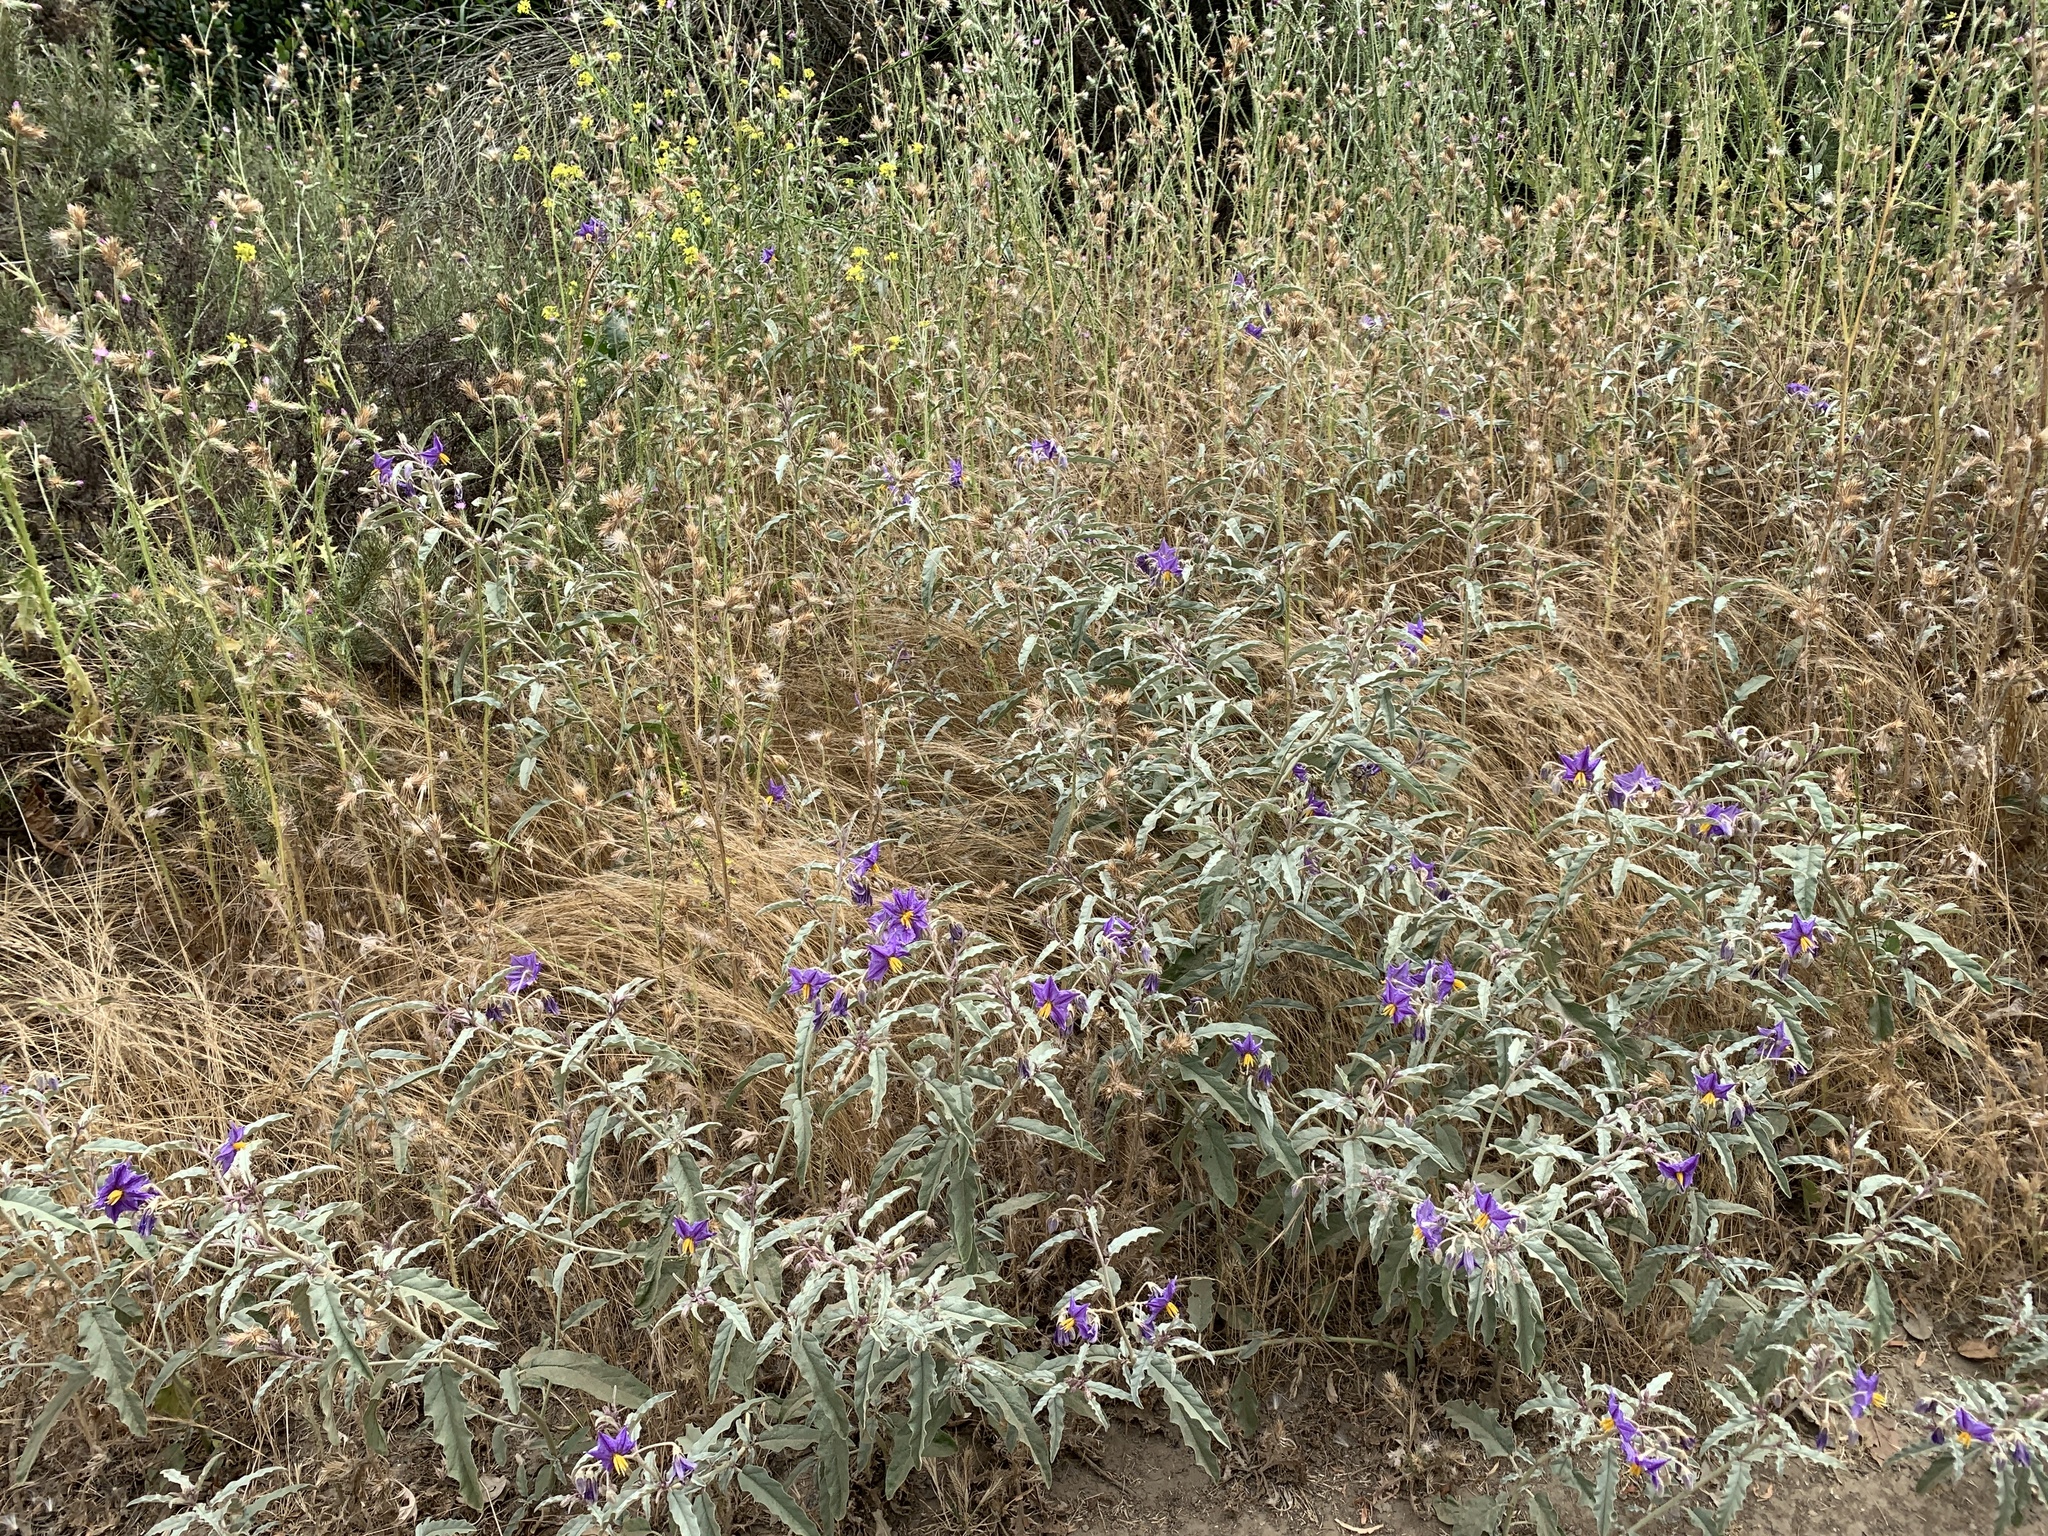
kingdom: Plantae
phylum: Tracheophyta
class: Magnoliopsida
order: Solanales
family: Solanaceae
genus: Solanum
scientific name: Solanum elaeagnifolium
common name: Silverleaf nightshade
